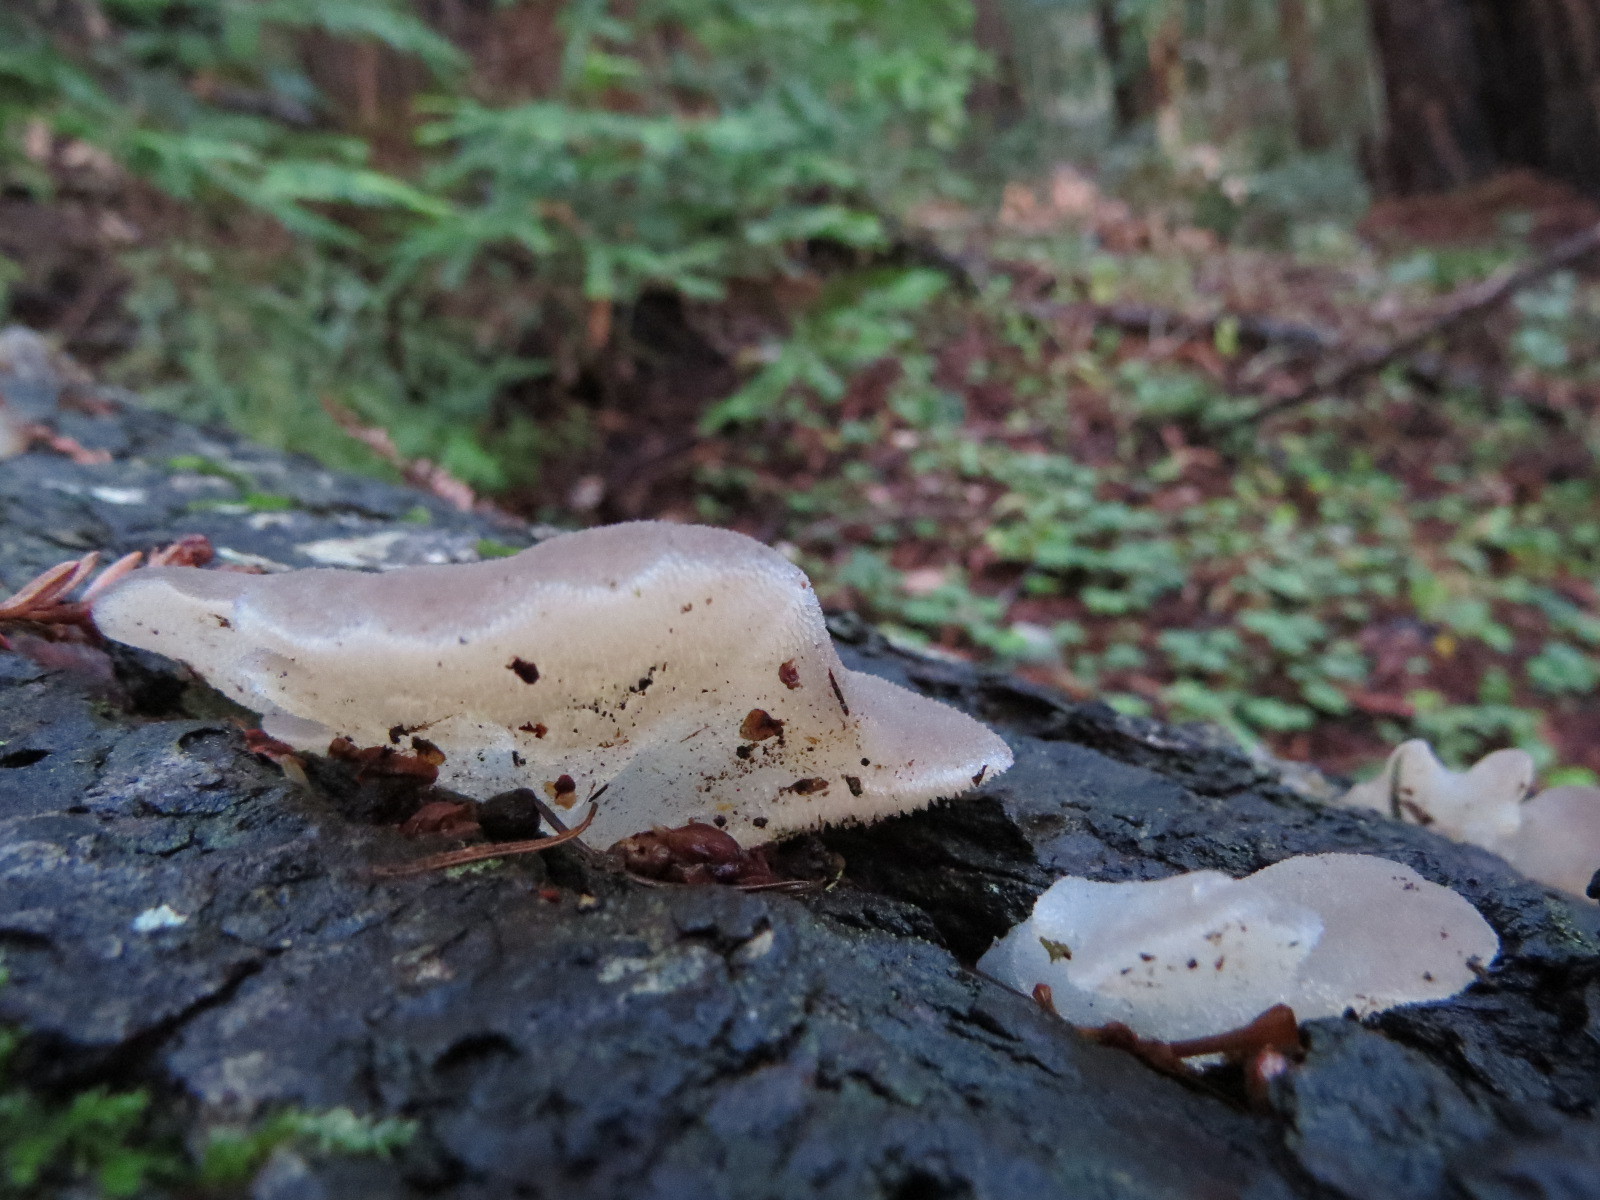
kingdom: Fungi
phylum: Basidiomycota
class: Agaricomycetes
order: Auriculariales
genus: Pseudohydnum
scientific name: Pseudohydnum gelatinosum
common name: Jelly tongue
